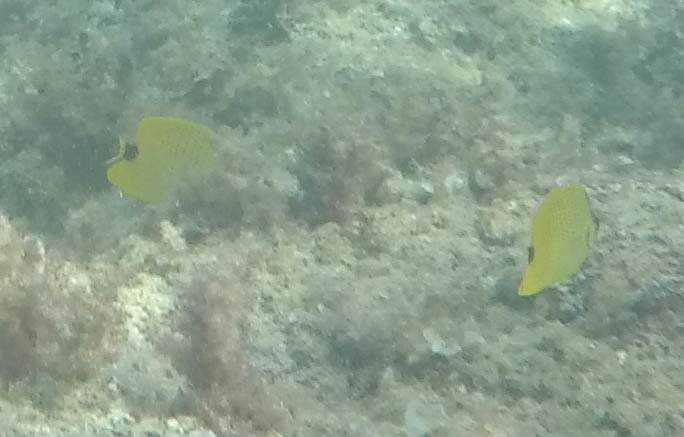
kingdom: Animalia
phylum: Chordata
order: Perciformes
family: Chaetodontidae
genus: Chaetodon
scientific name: Chaetodon miliaris
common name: Lemon butterflyfish
